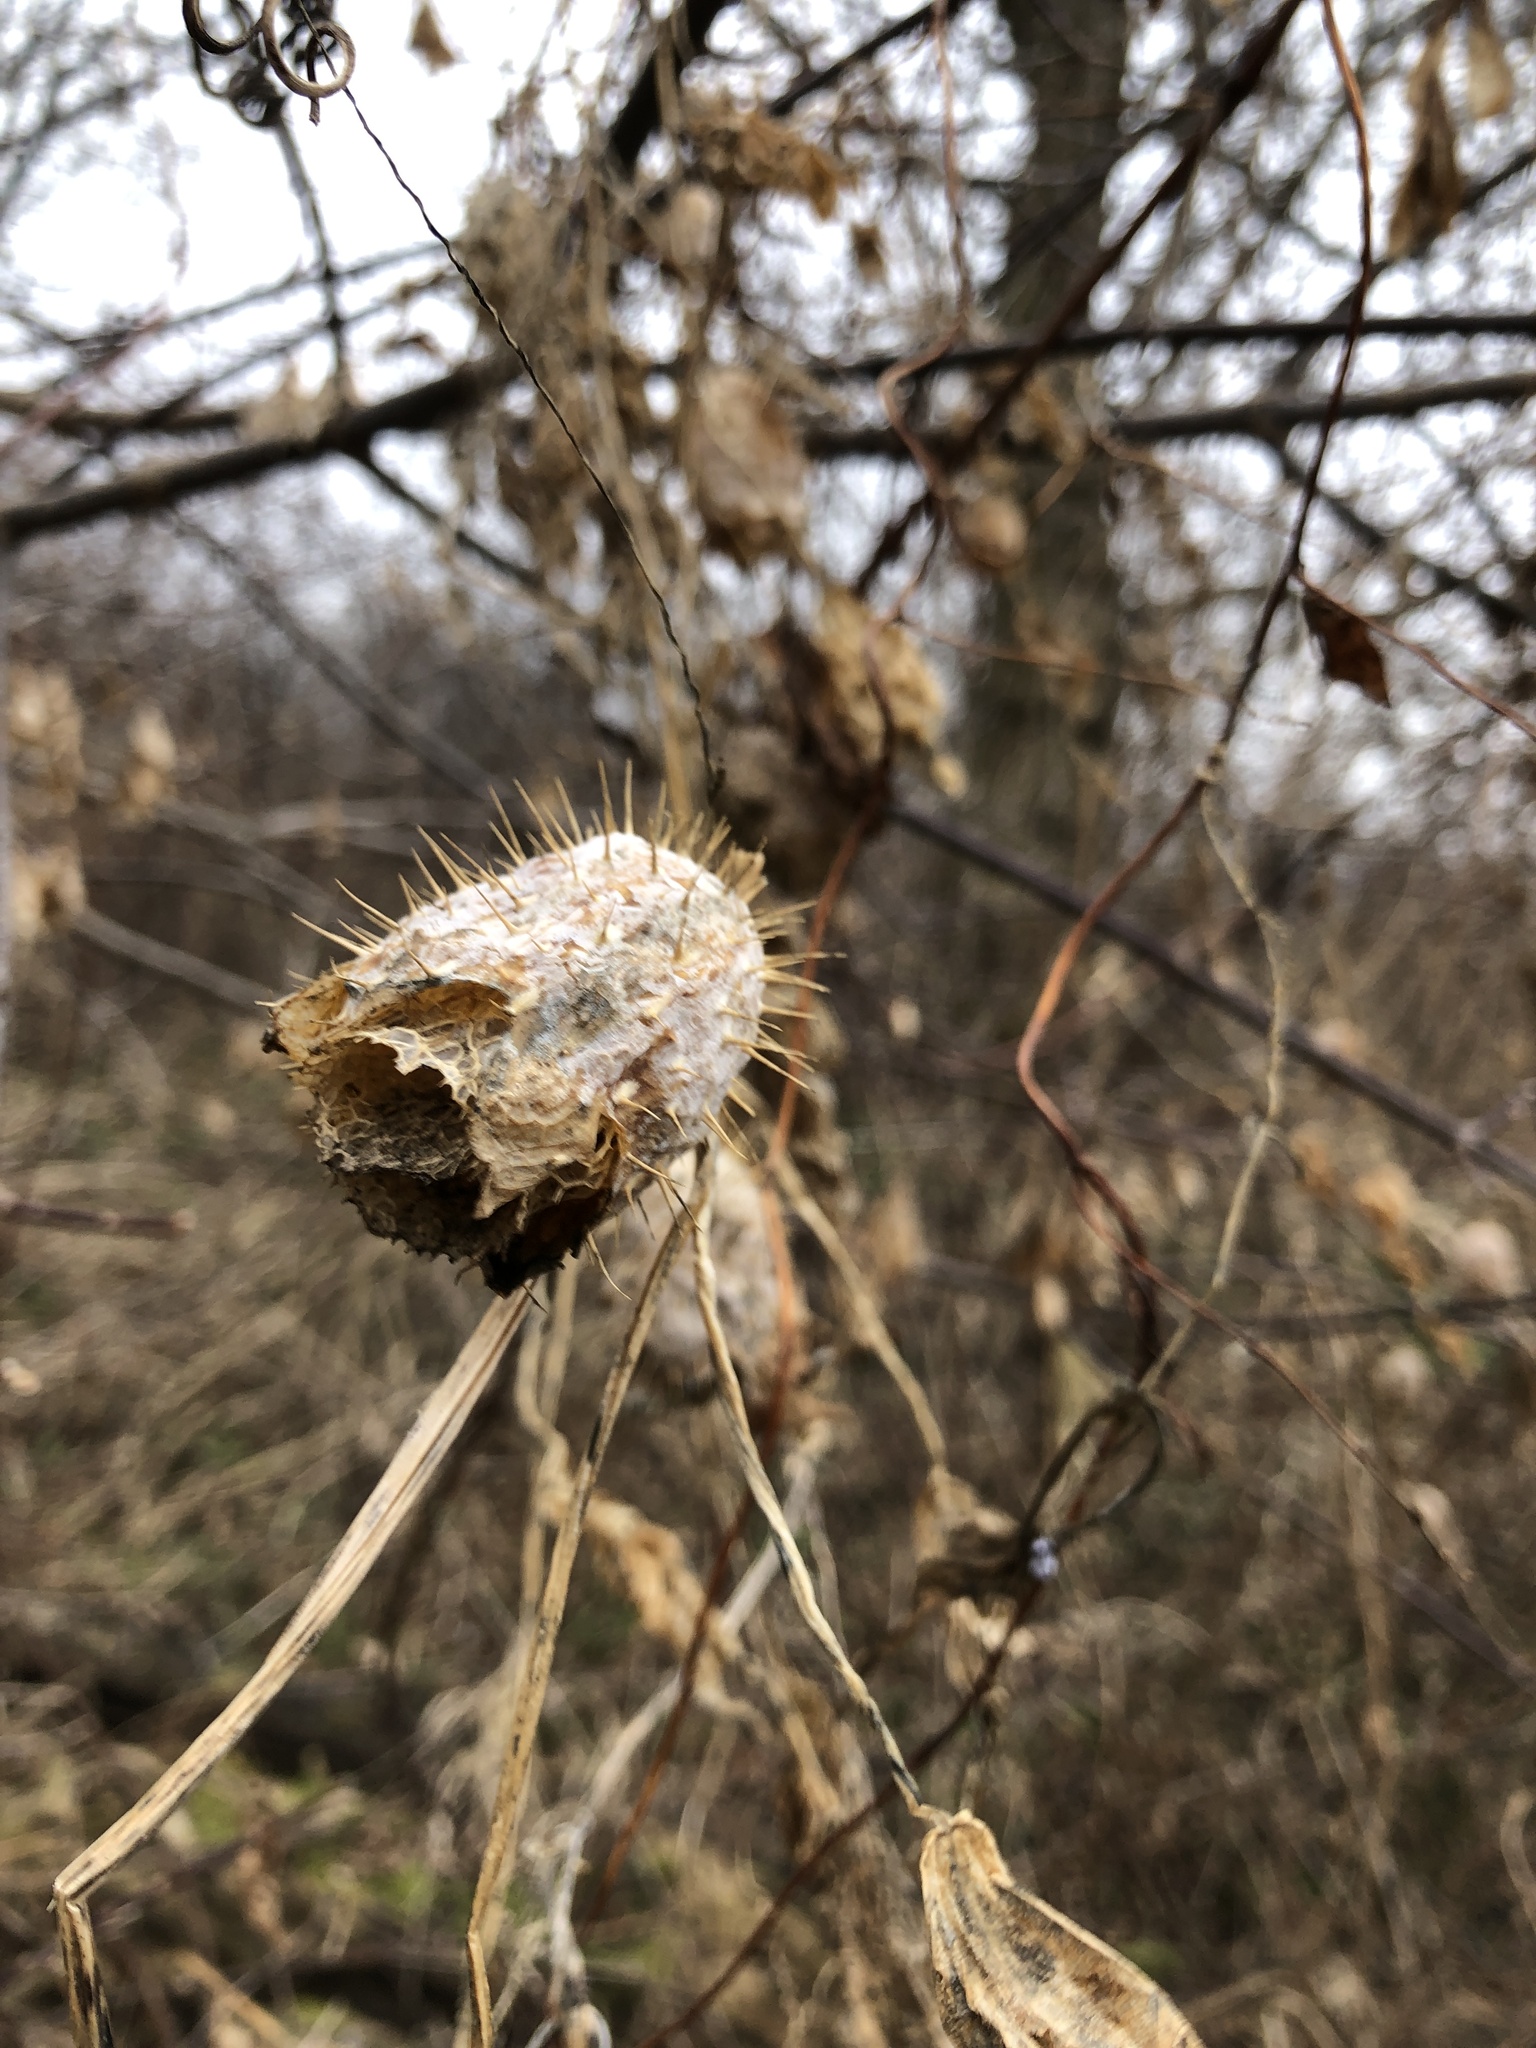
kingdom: Plantae
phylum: Tracheophyta
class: Magnoliopsida
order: Cucurbitales
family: Cucurbitaceae
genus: Echinocystis
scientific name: Echinocystis lobata
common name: Wild cucumber
